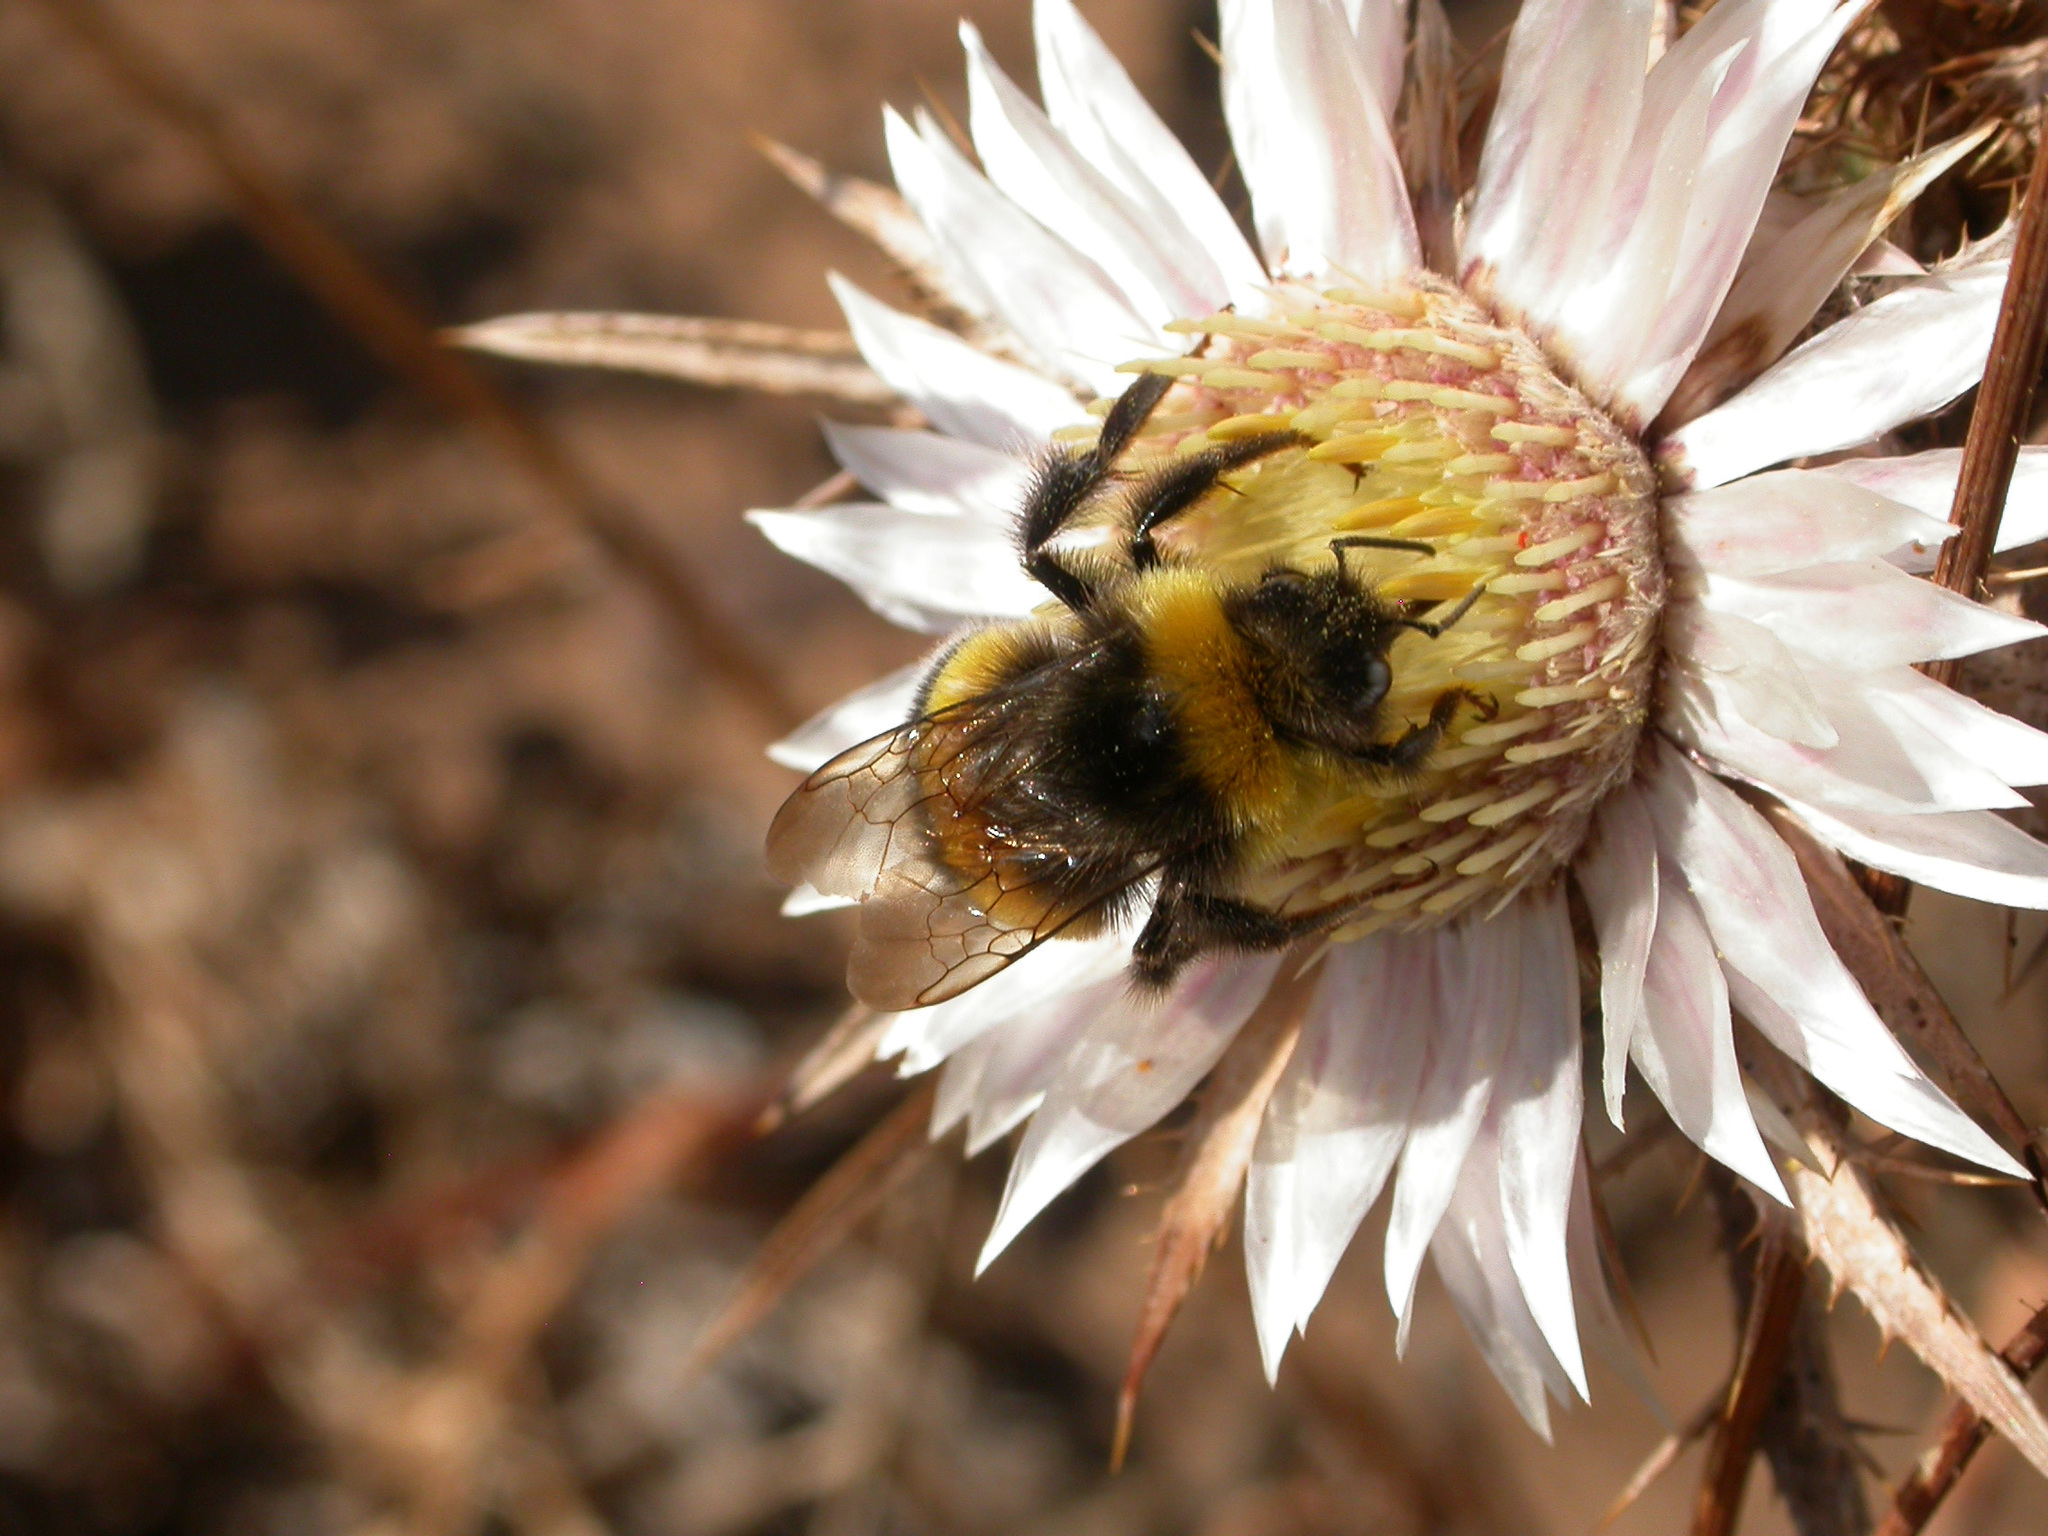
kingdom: Animalia
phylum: Arthropoda
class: Insecta
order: Hymenoptera
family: Apidae
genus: Bombus
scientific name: Bombus terrestris
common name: Buff-tailed bumblebee
